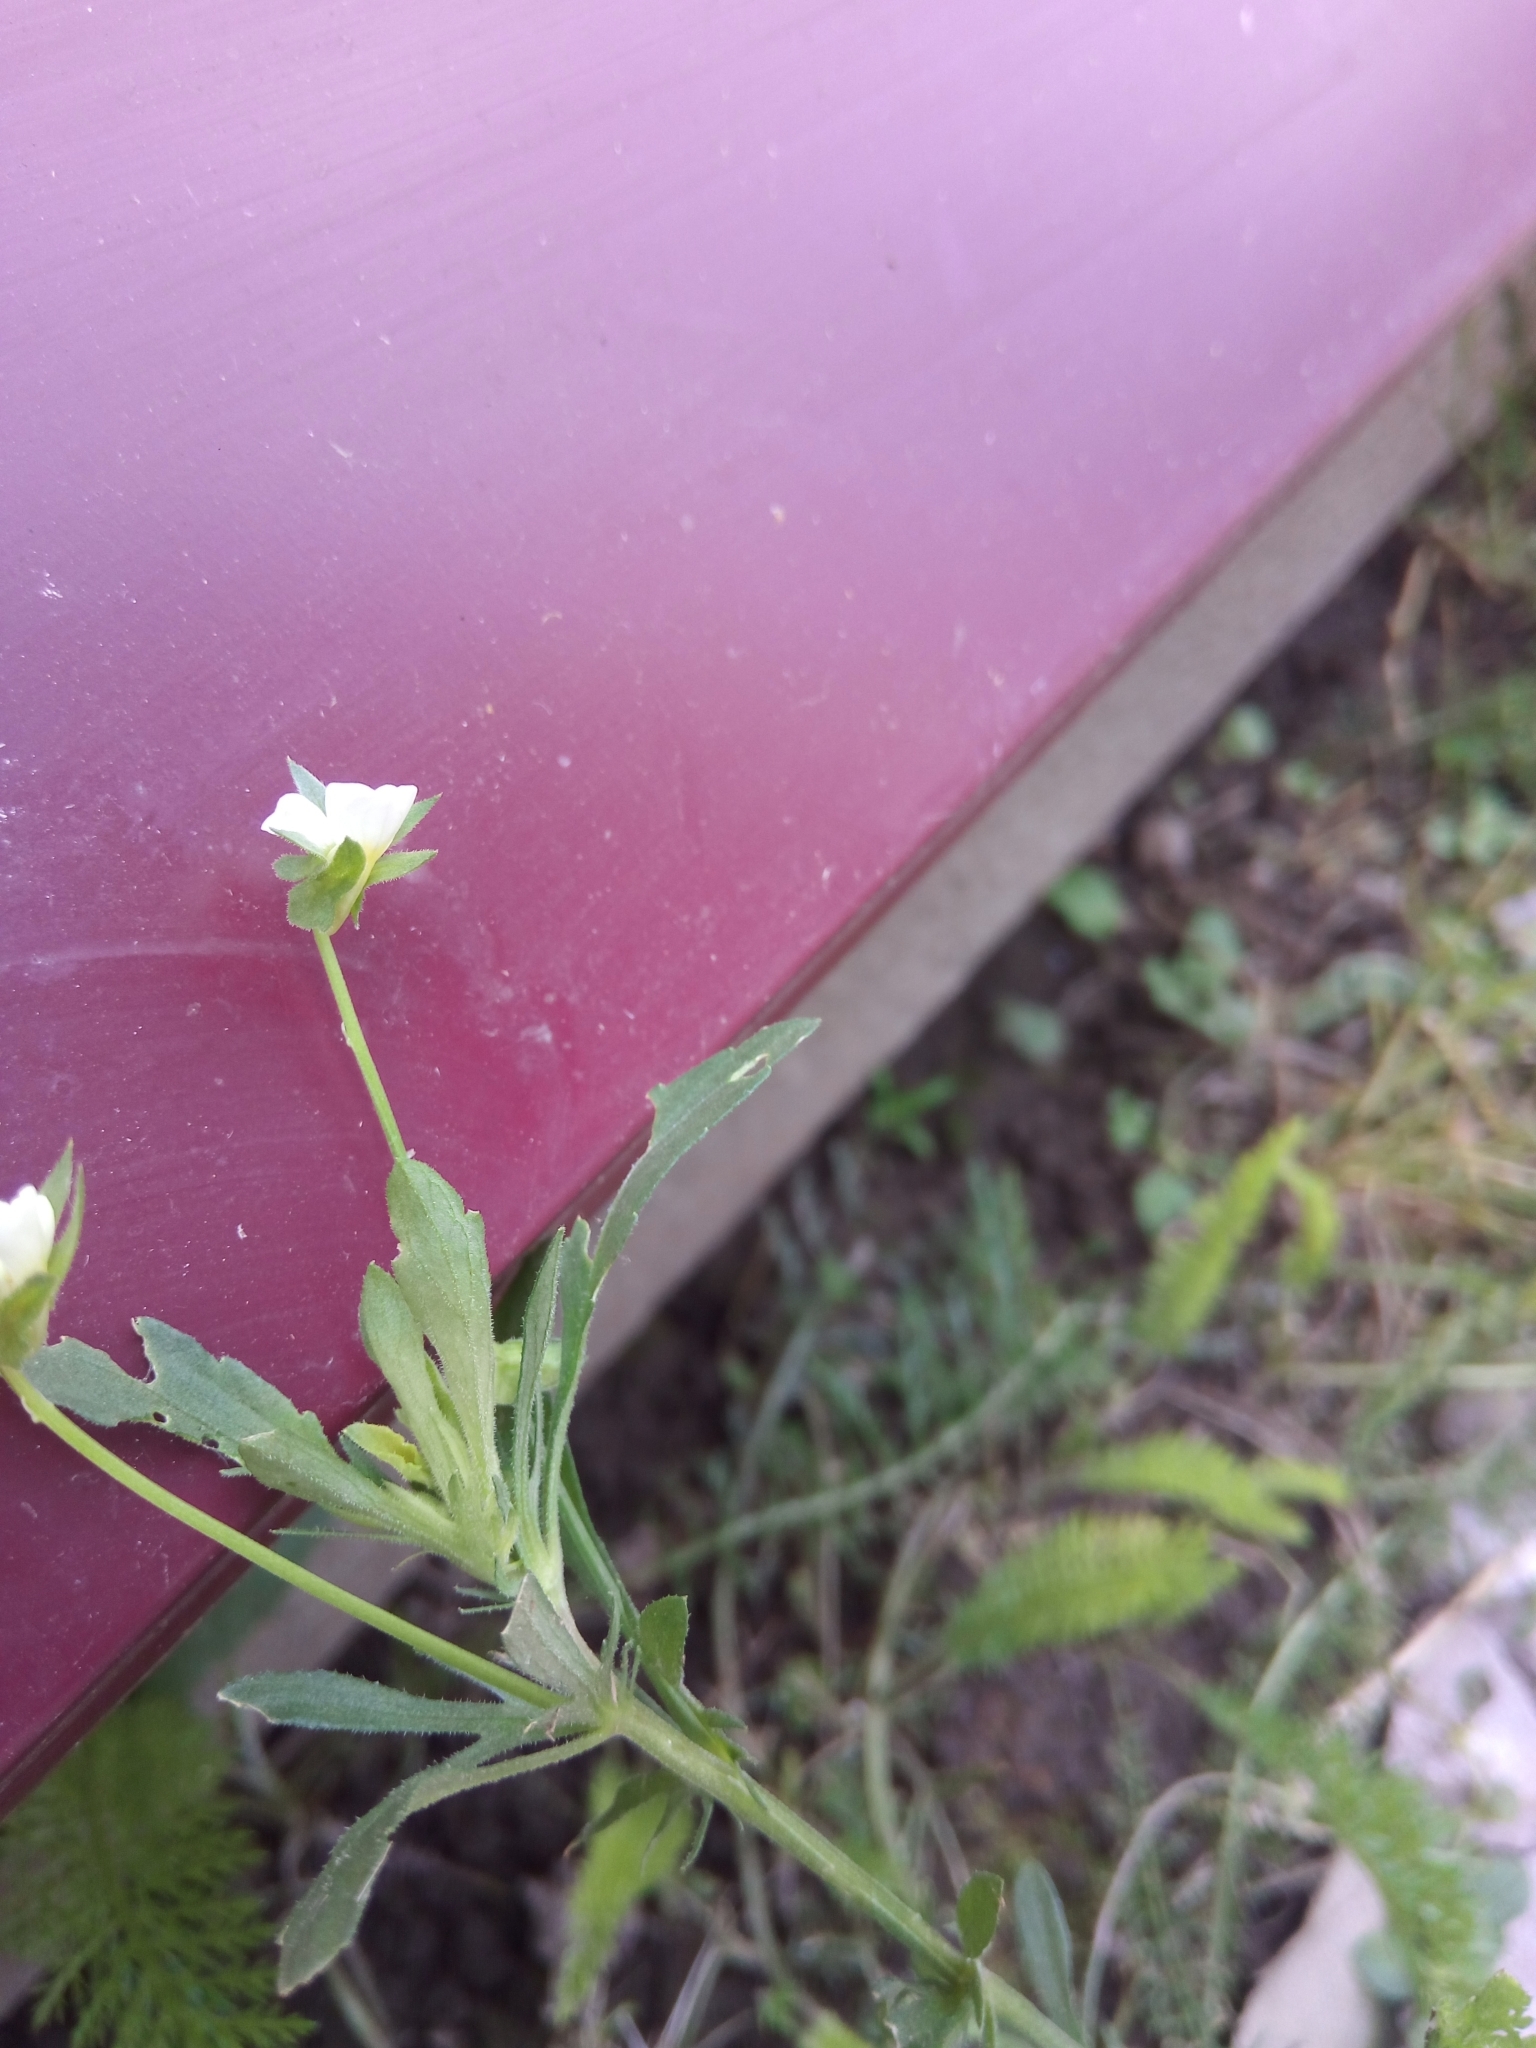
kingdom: Plantae
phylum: Tracheophyta
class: Magnoliopsida
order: Malpighiales
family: Violaceae
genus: Viola
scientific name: Viola arvensis
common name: Field pansy
